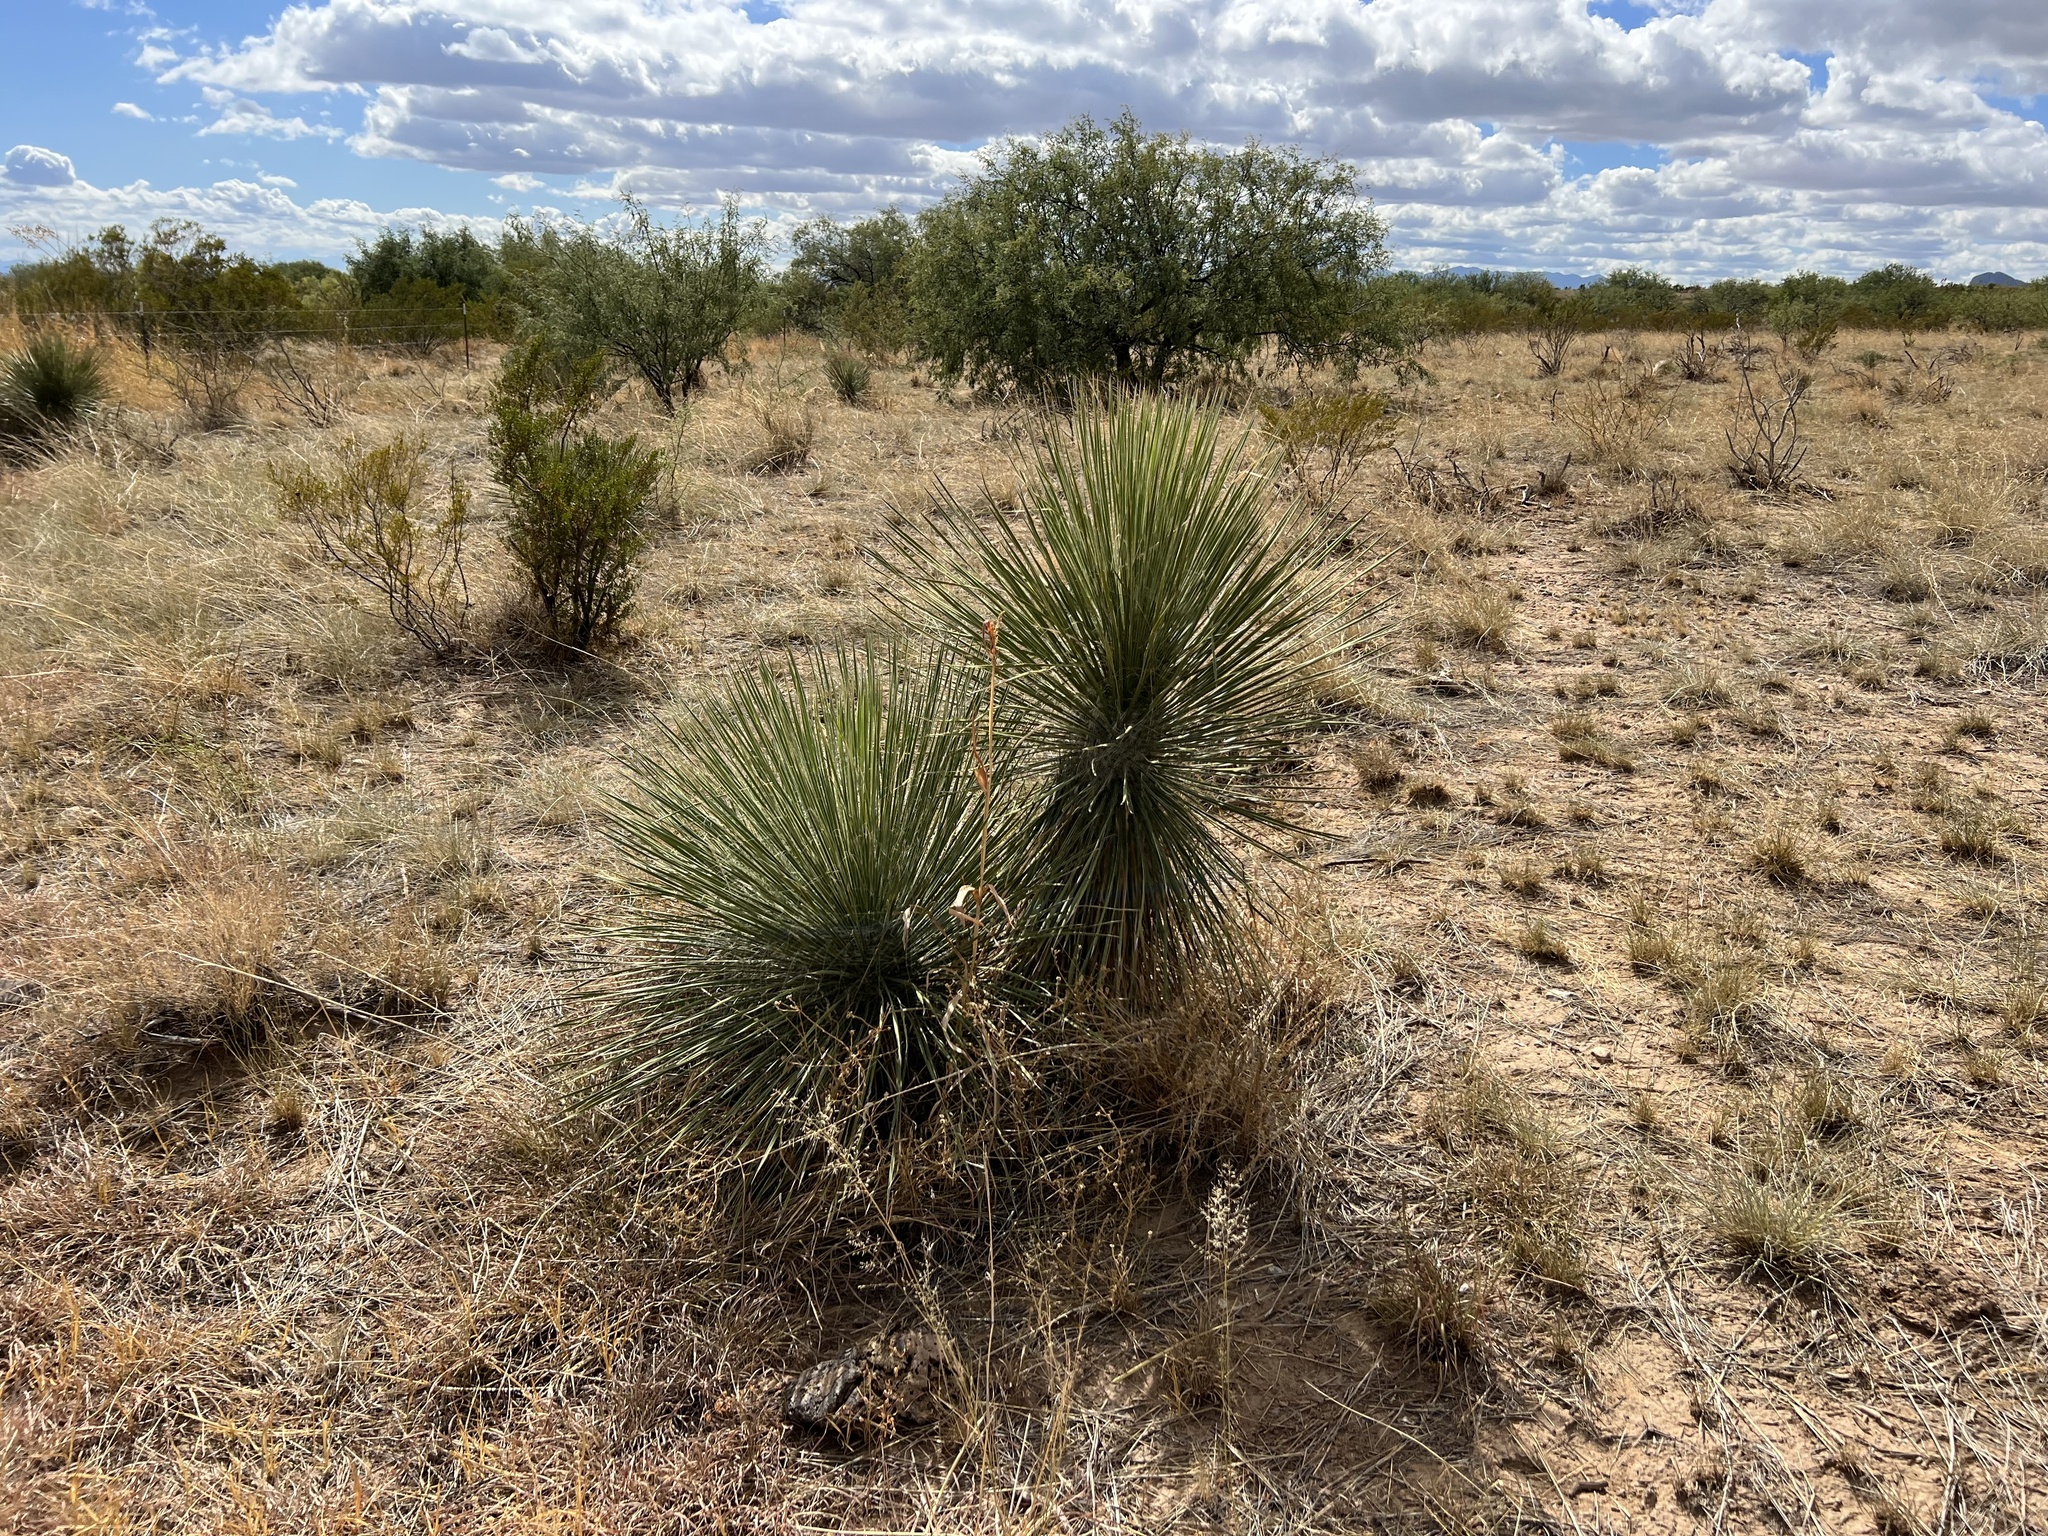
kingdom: Plantae
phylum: Tracheophyta
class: Liliopsida
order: Asparagales
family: Asparagaceae
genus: Yucca
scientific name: Yucca elata
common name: Palmella
